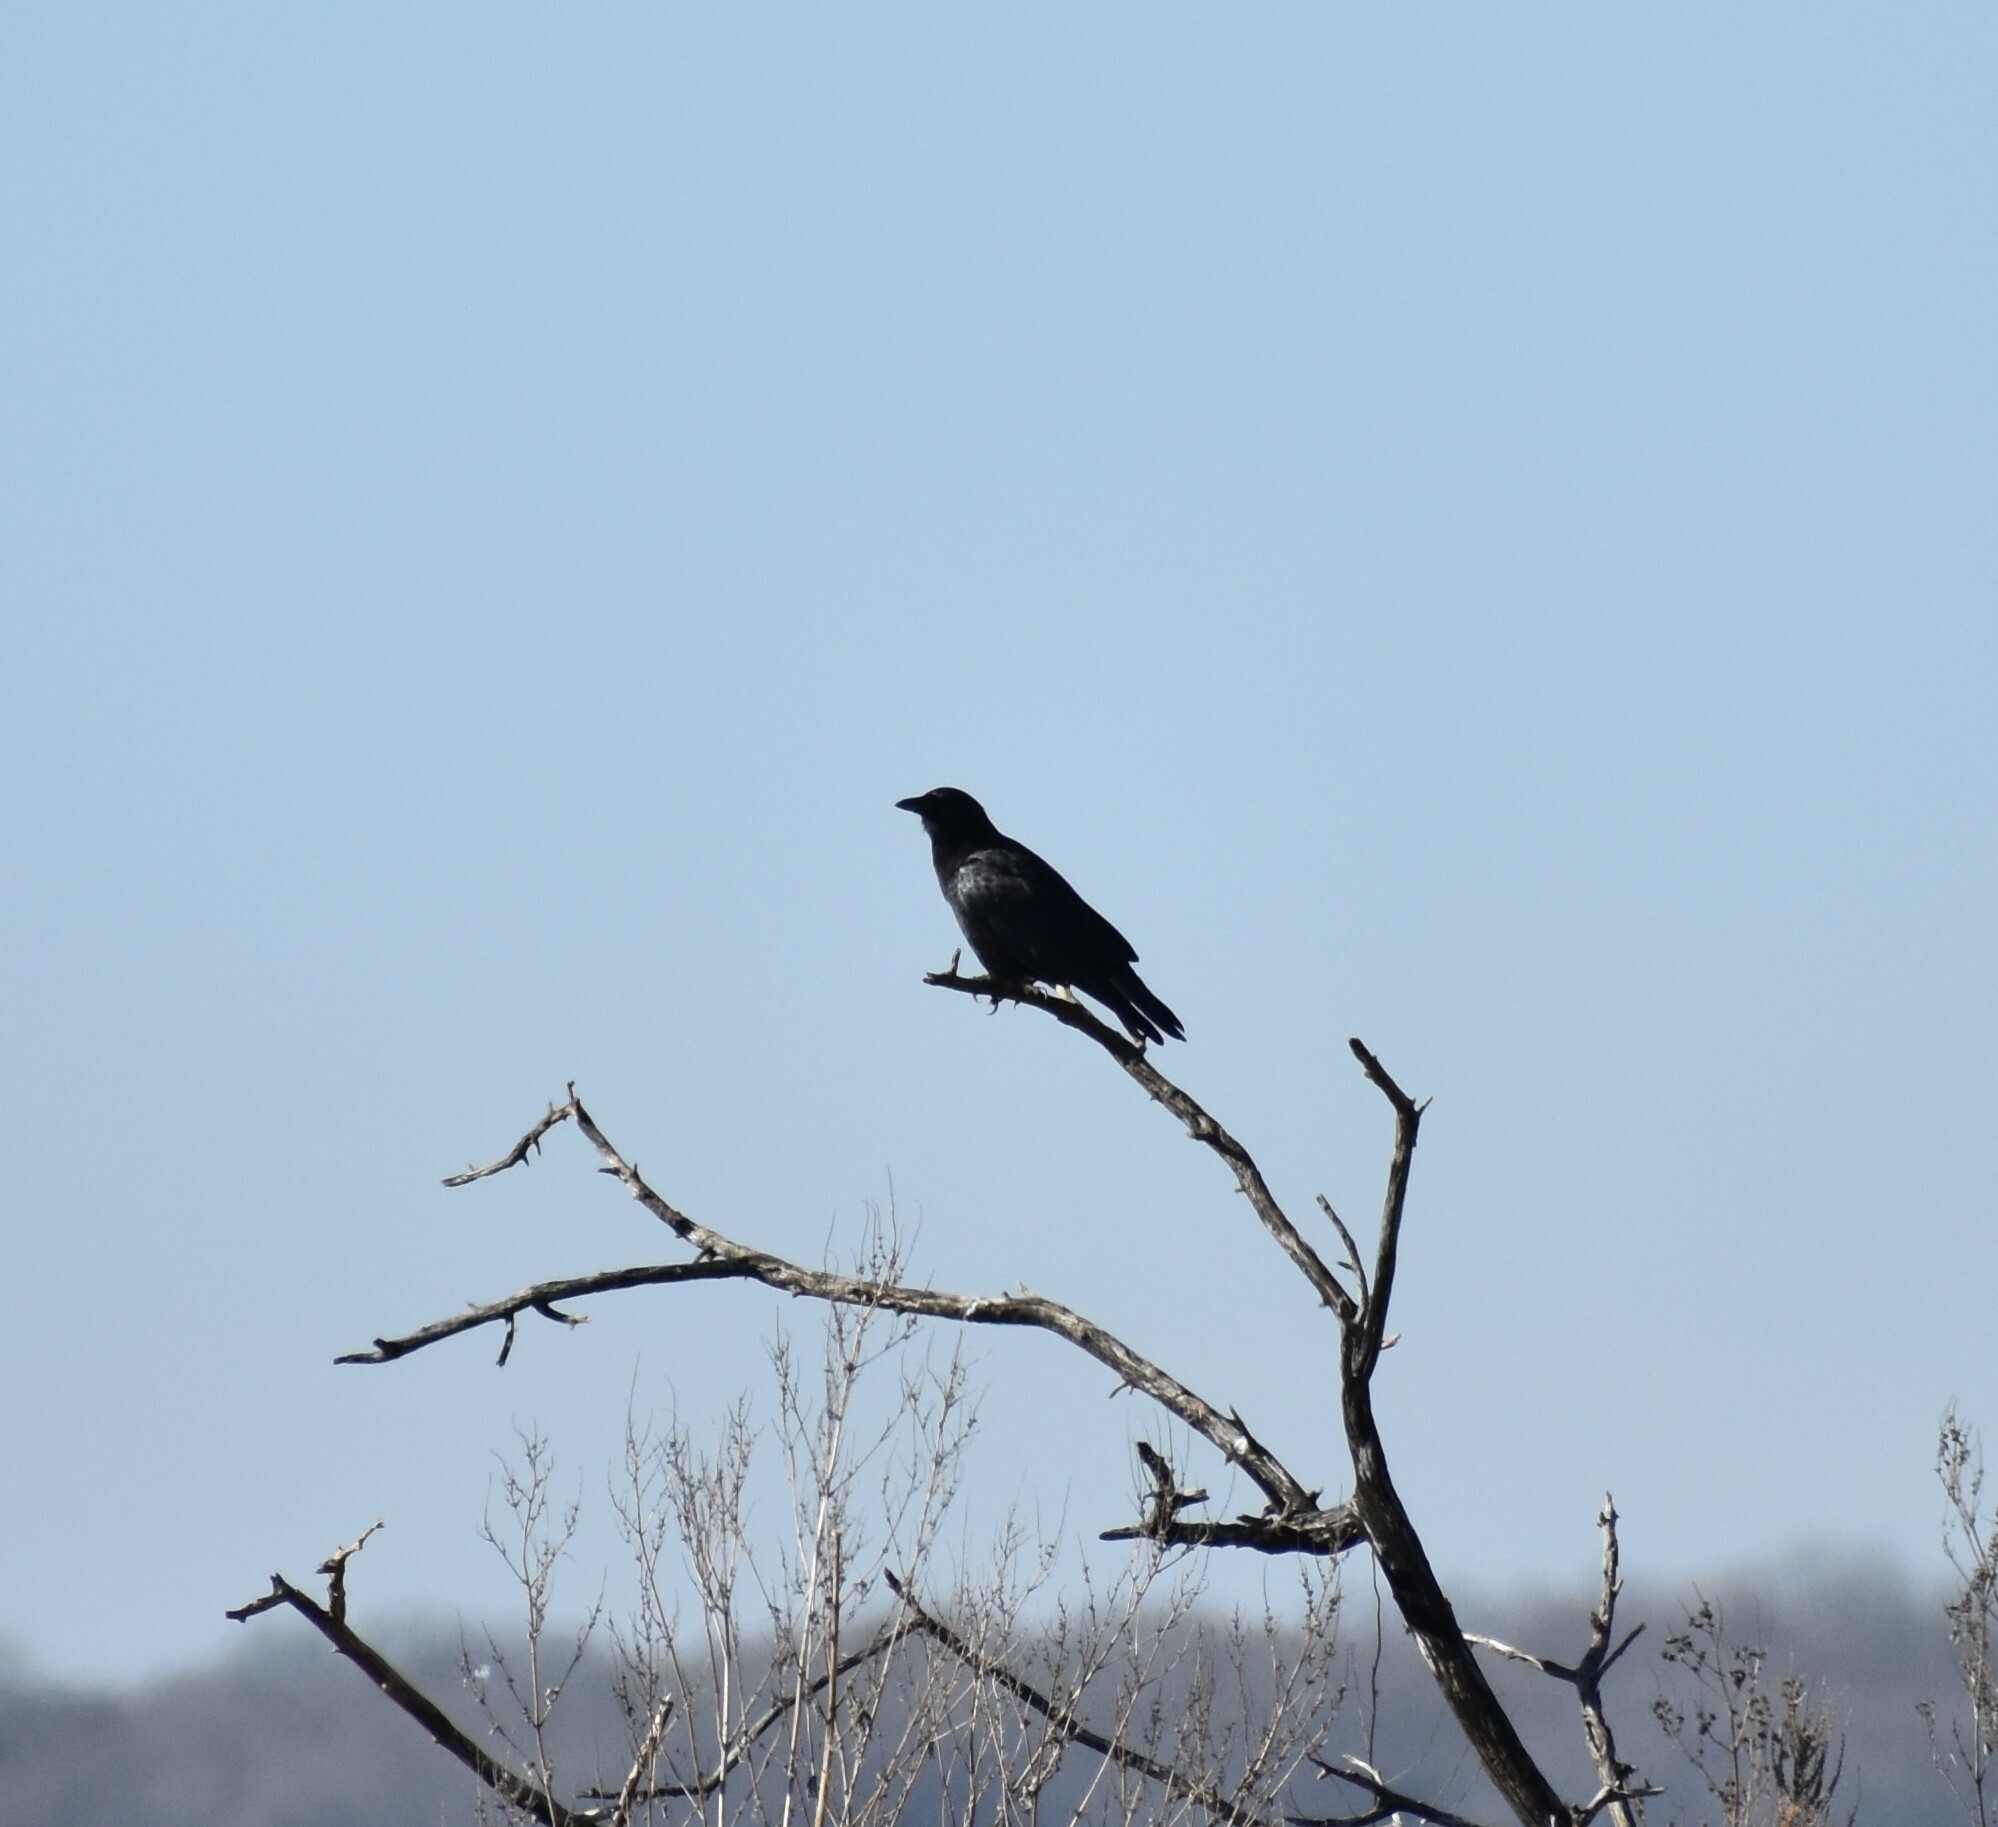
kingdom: Animalia
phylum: Chordata
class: Aves
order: Passeriformes
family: Corvidae
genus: Corvus
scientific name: Corvus brachyrhynchos
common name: American crow
